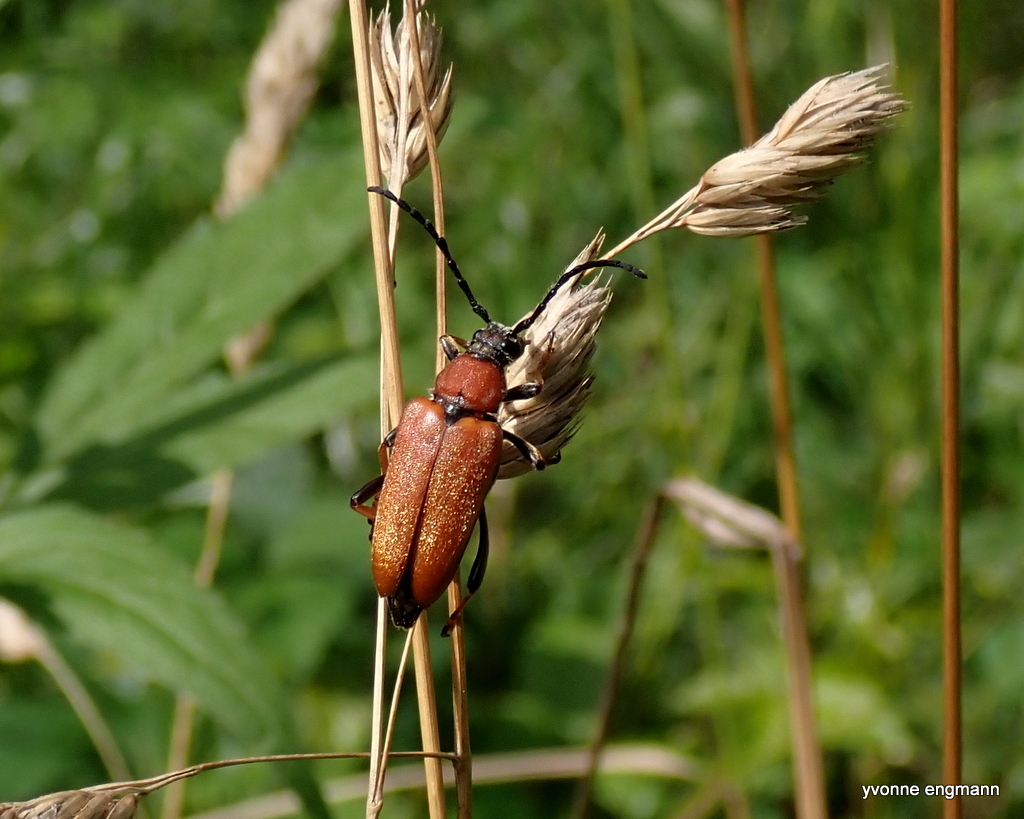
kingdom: Animalia
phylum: Arthropoda
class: Insecta
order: Coleoptera
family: Cerambycidae
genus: Stictoleptura
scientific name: Stictoleptura rubra
